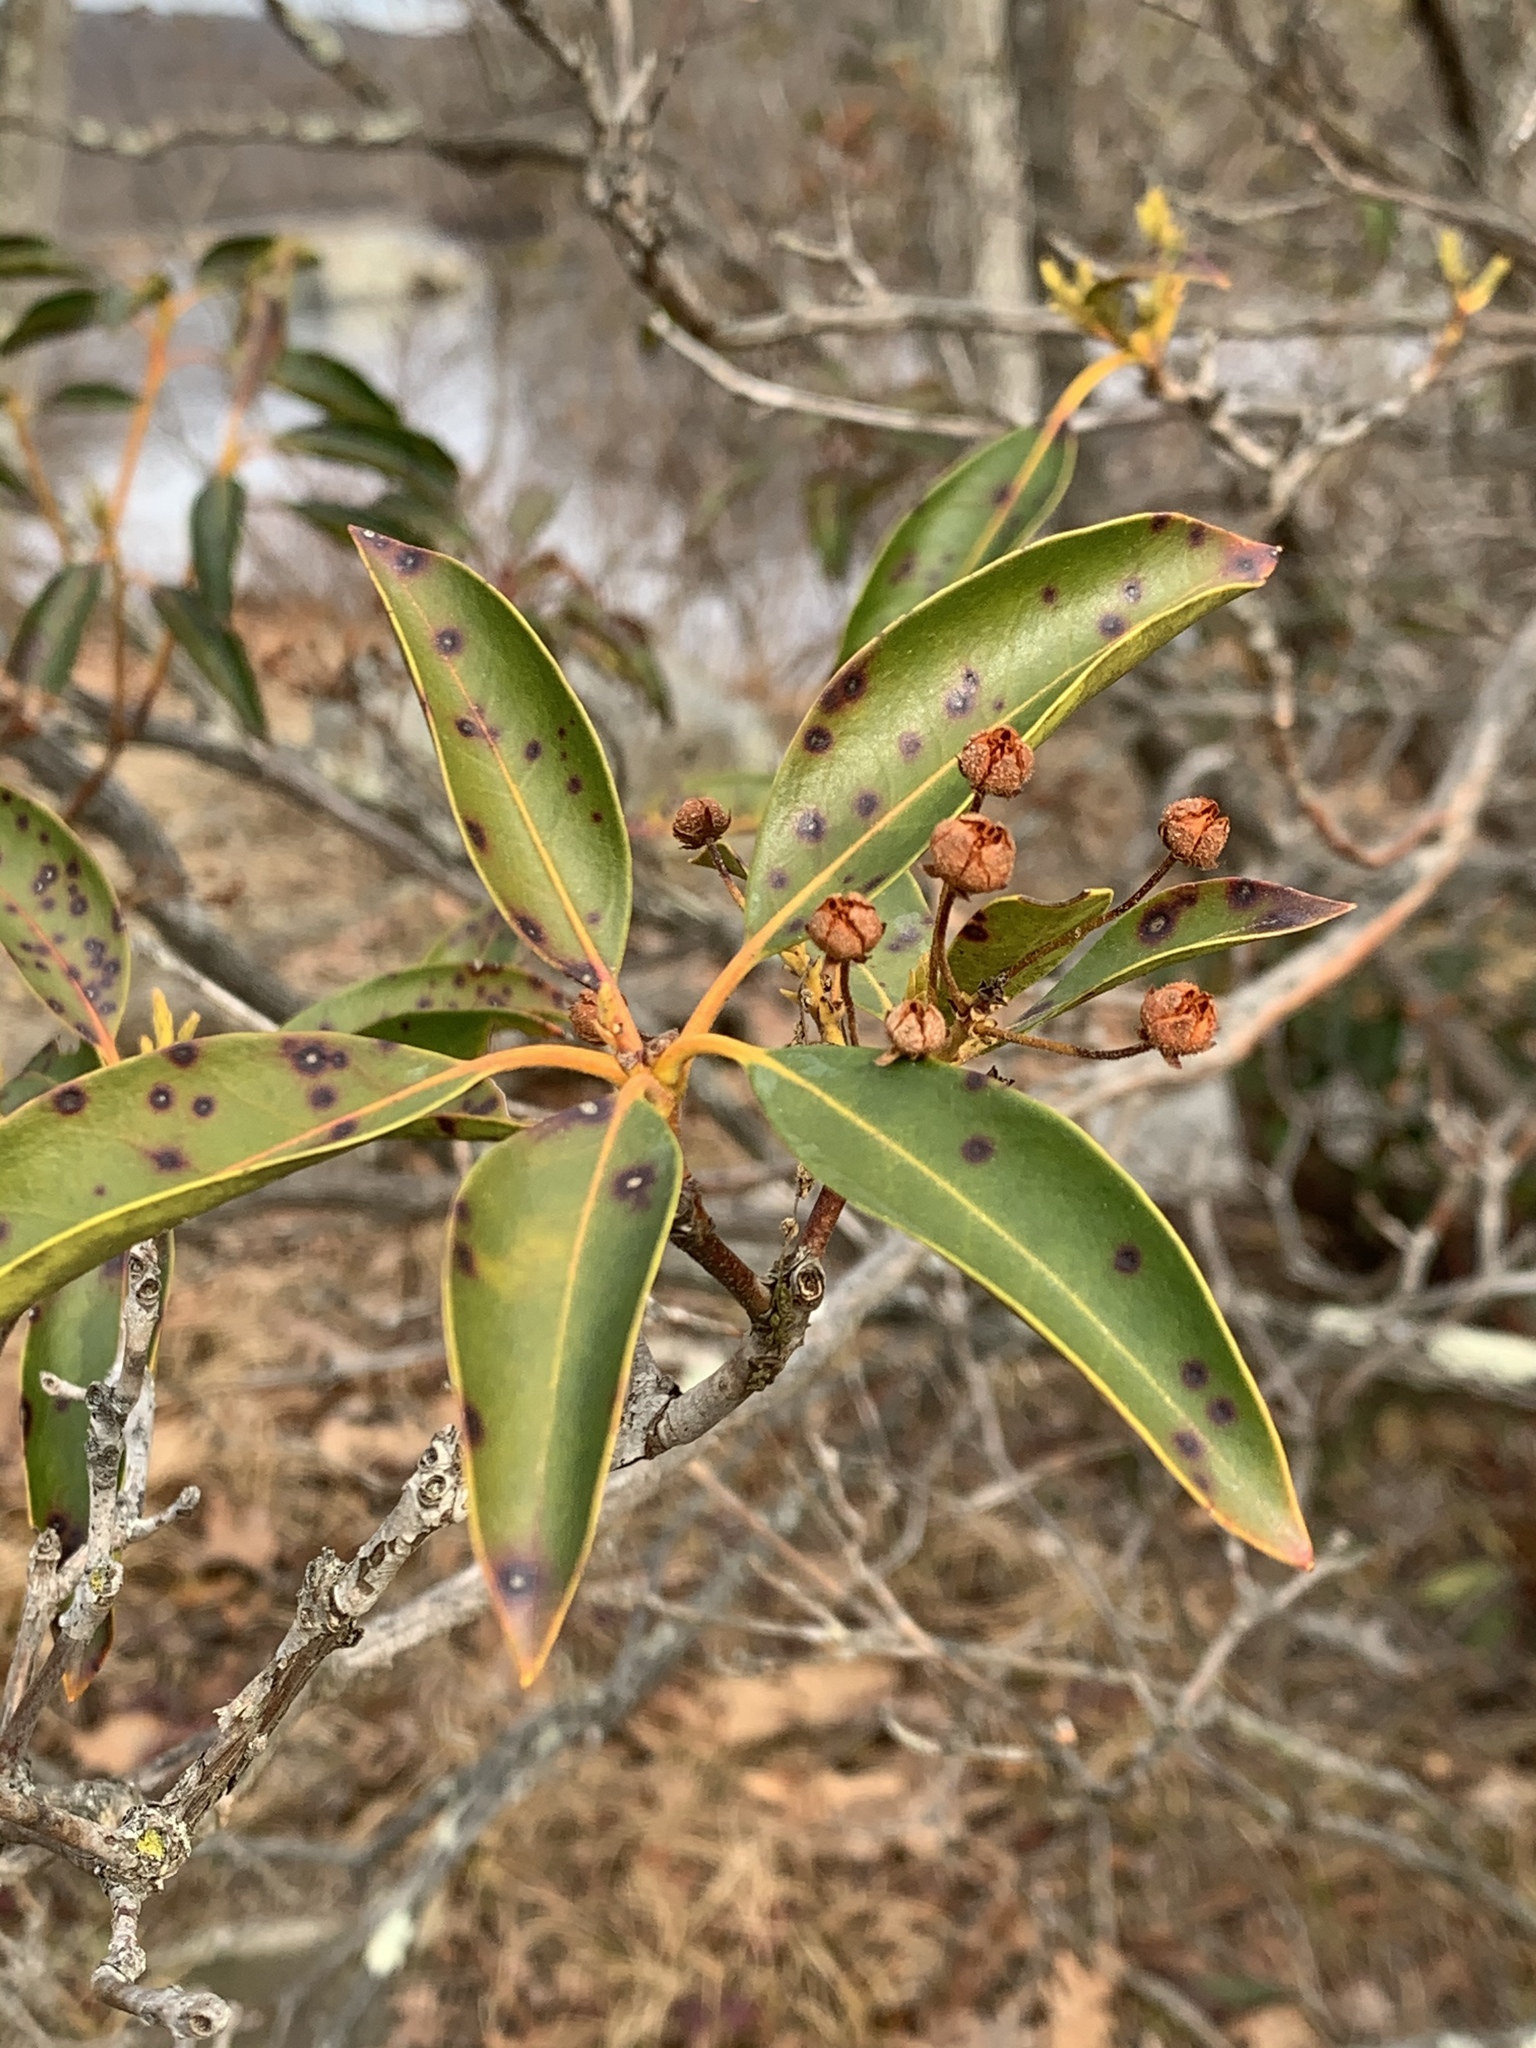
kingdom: Plantae
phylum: Tracheophyta
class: Magnoliopsida
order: Ericales
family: Ericaceae
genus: Kalmia
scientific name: Kalmia latifolia
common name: Mountain-laurel
